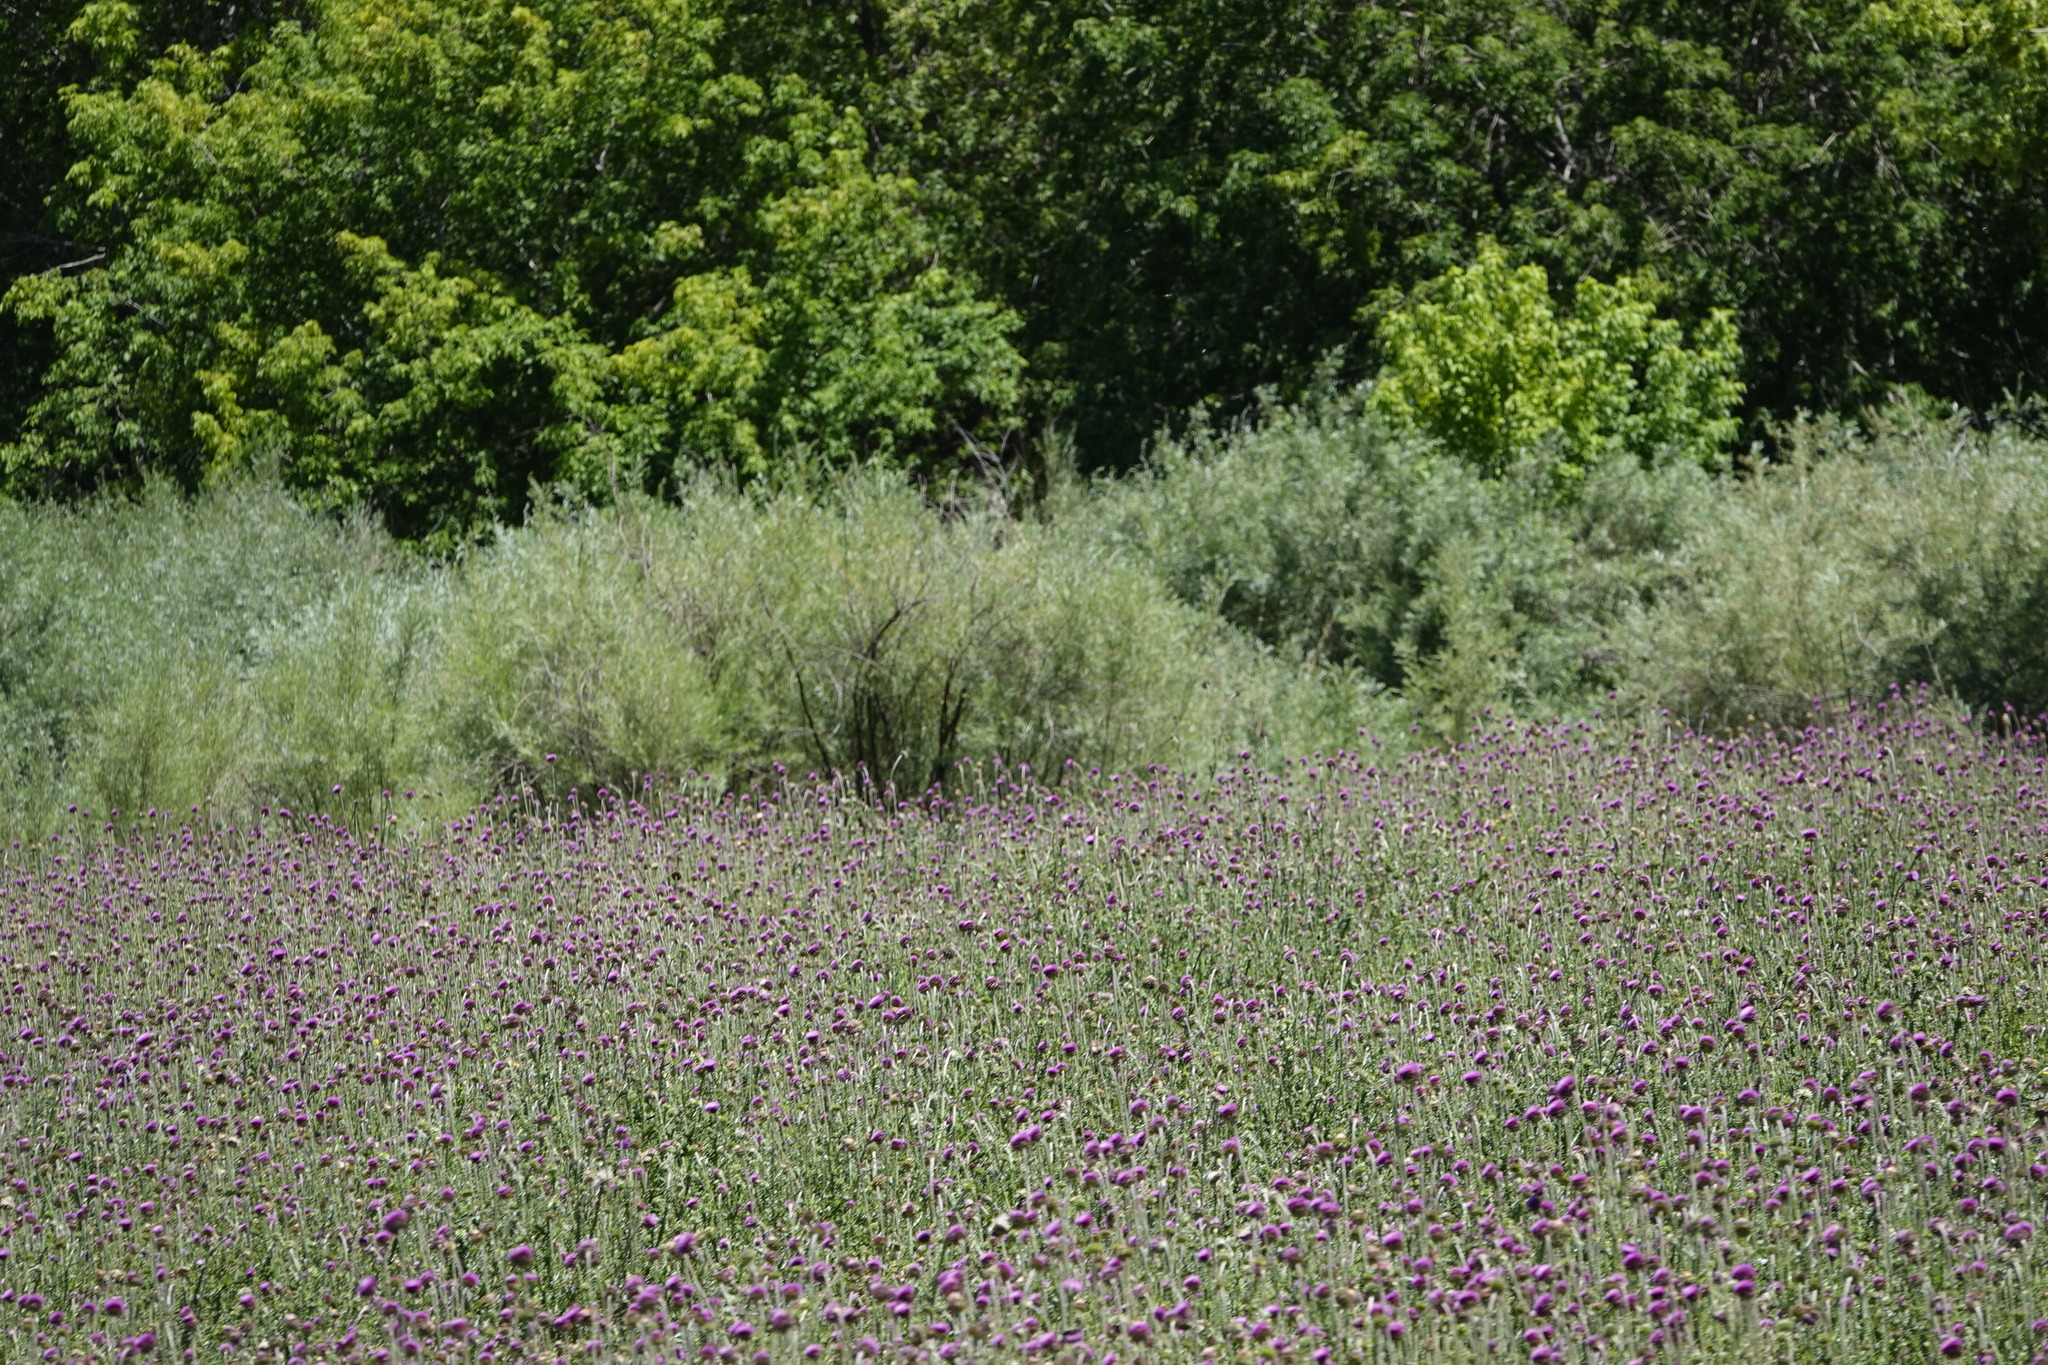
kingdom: Plantae
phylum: Tracheophyta
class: Magnoliopsida
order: Asterales
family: Asteraceae
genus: Carduus
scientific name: Carduus nutans
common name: Musk thistle
